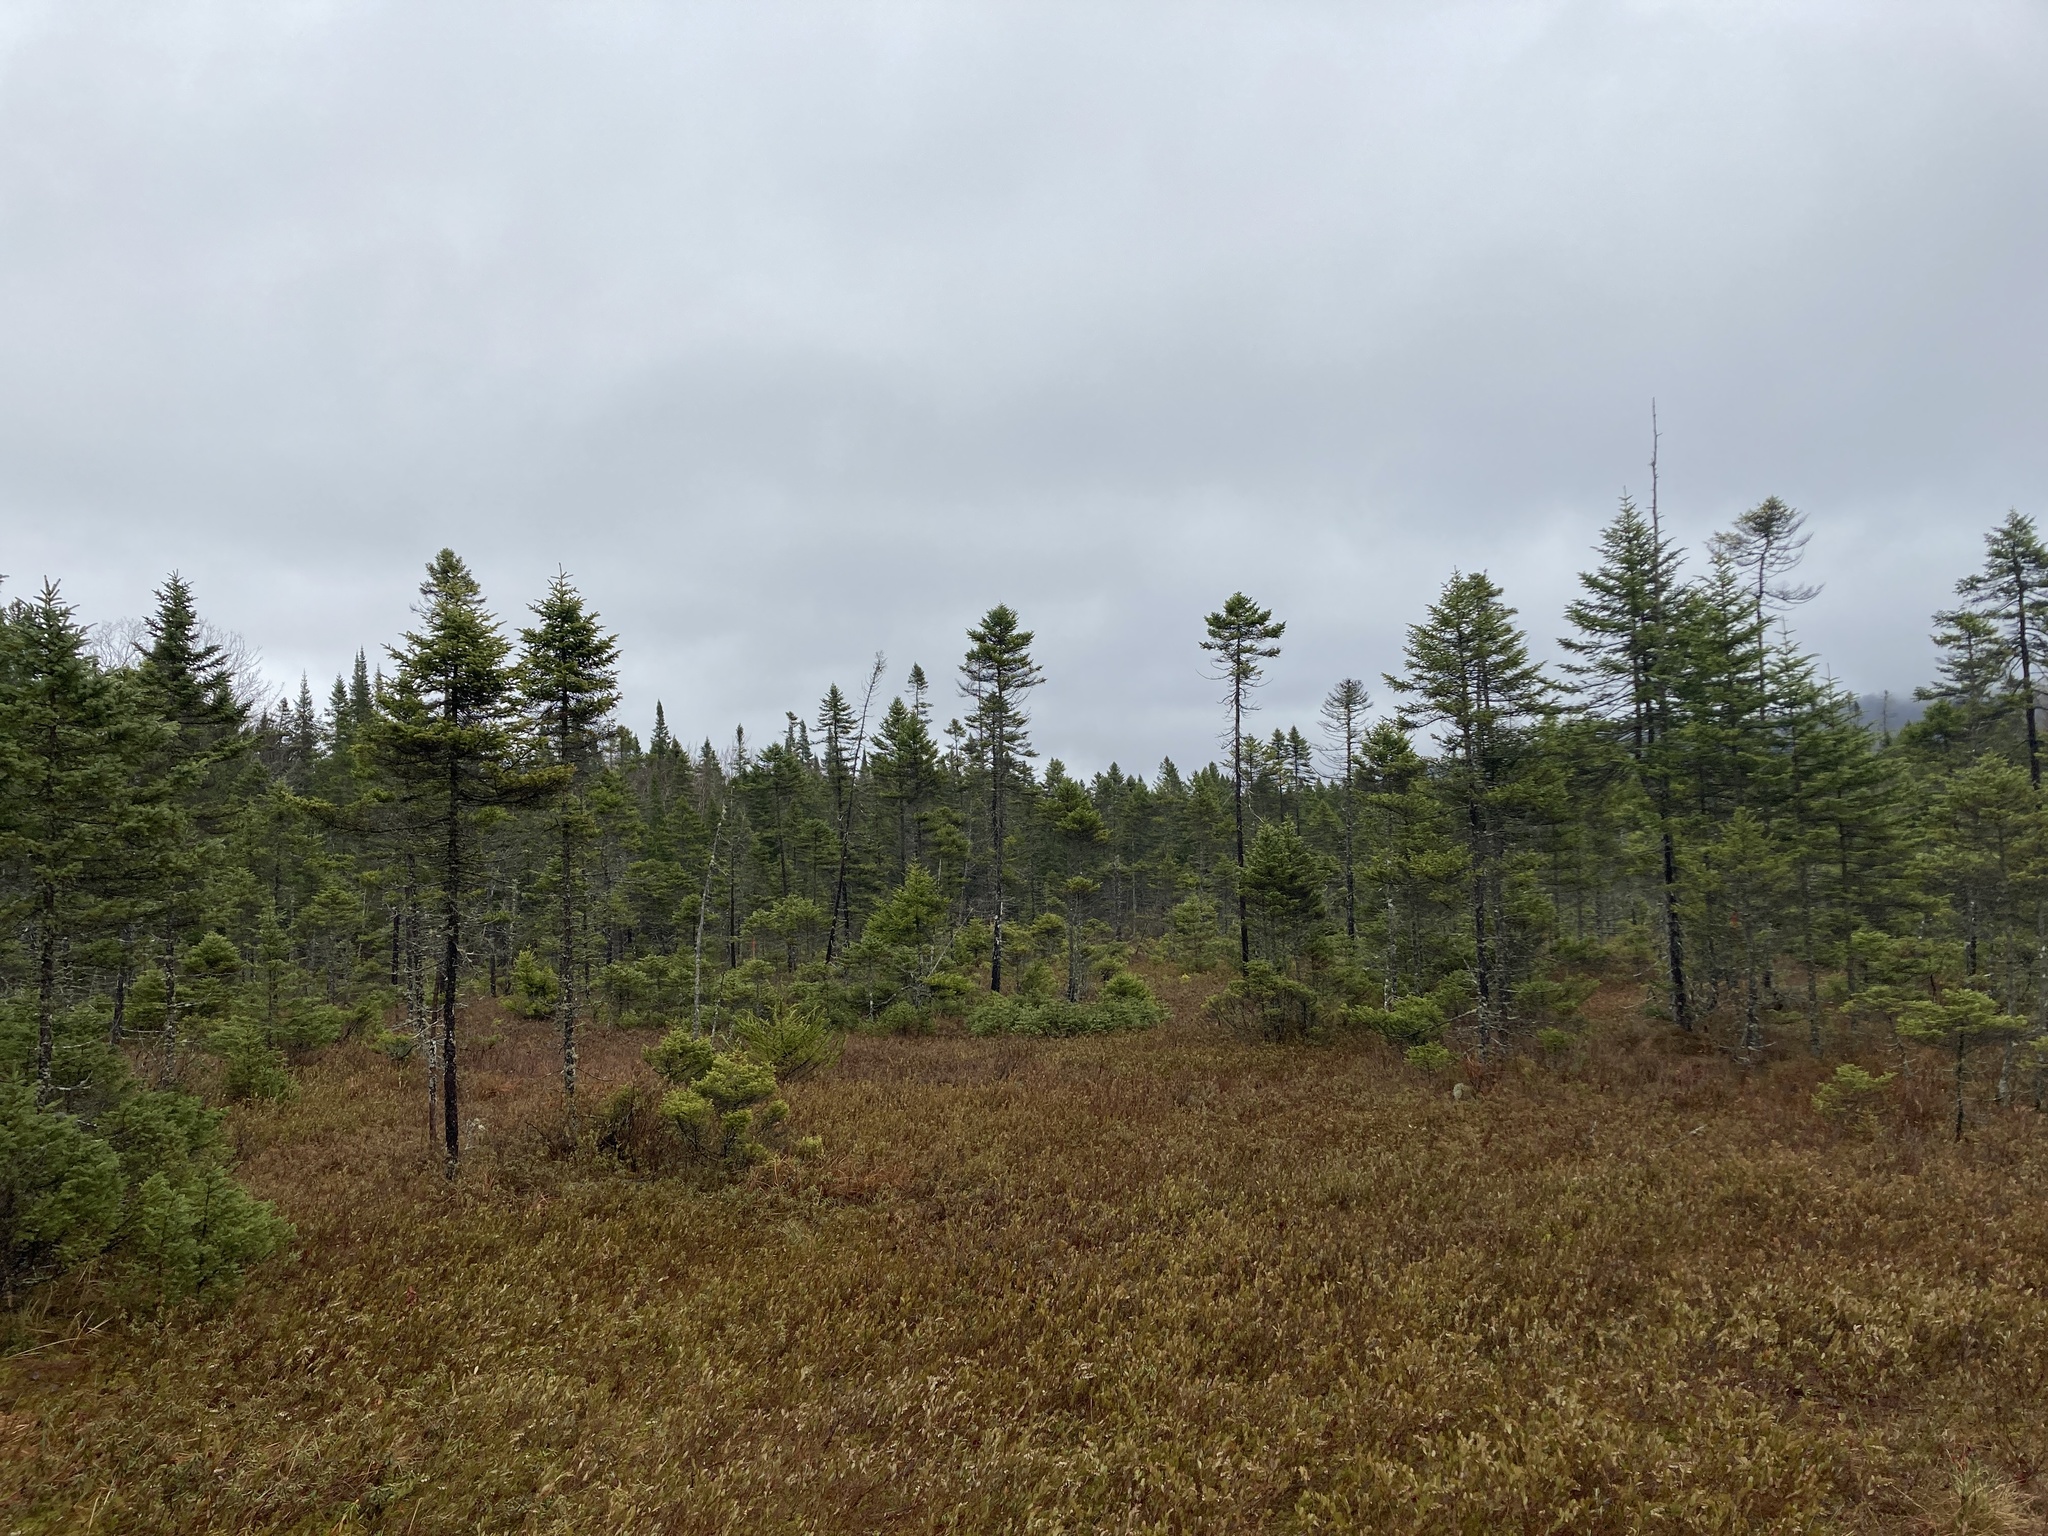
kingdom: Plantae
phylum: Tracheophyta
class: Pinopsida
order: Pinales
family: Pinaceae
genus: Picea
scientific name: Picea mariana
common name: Black spruce
